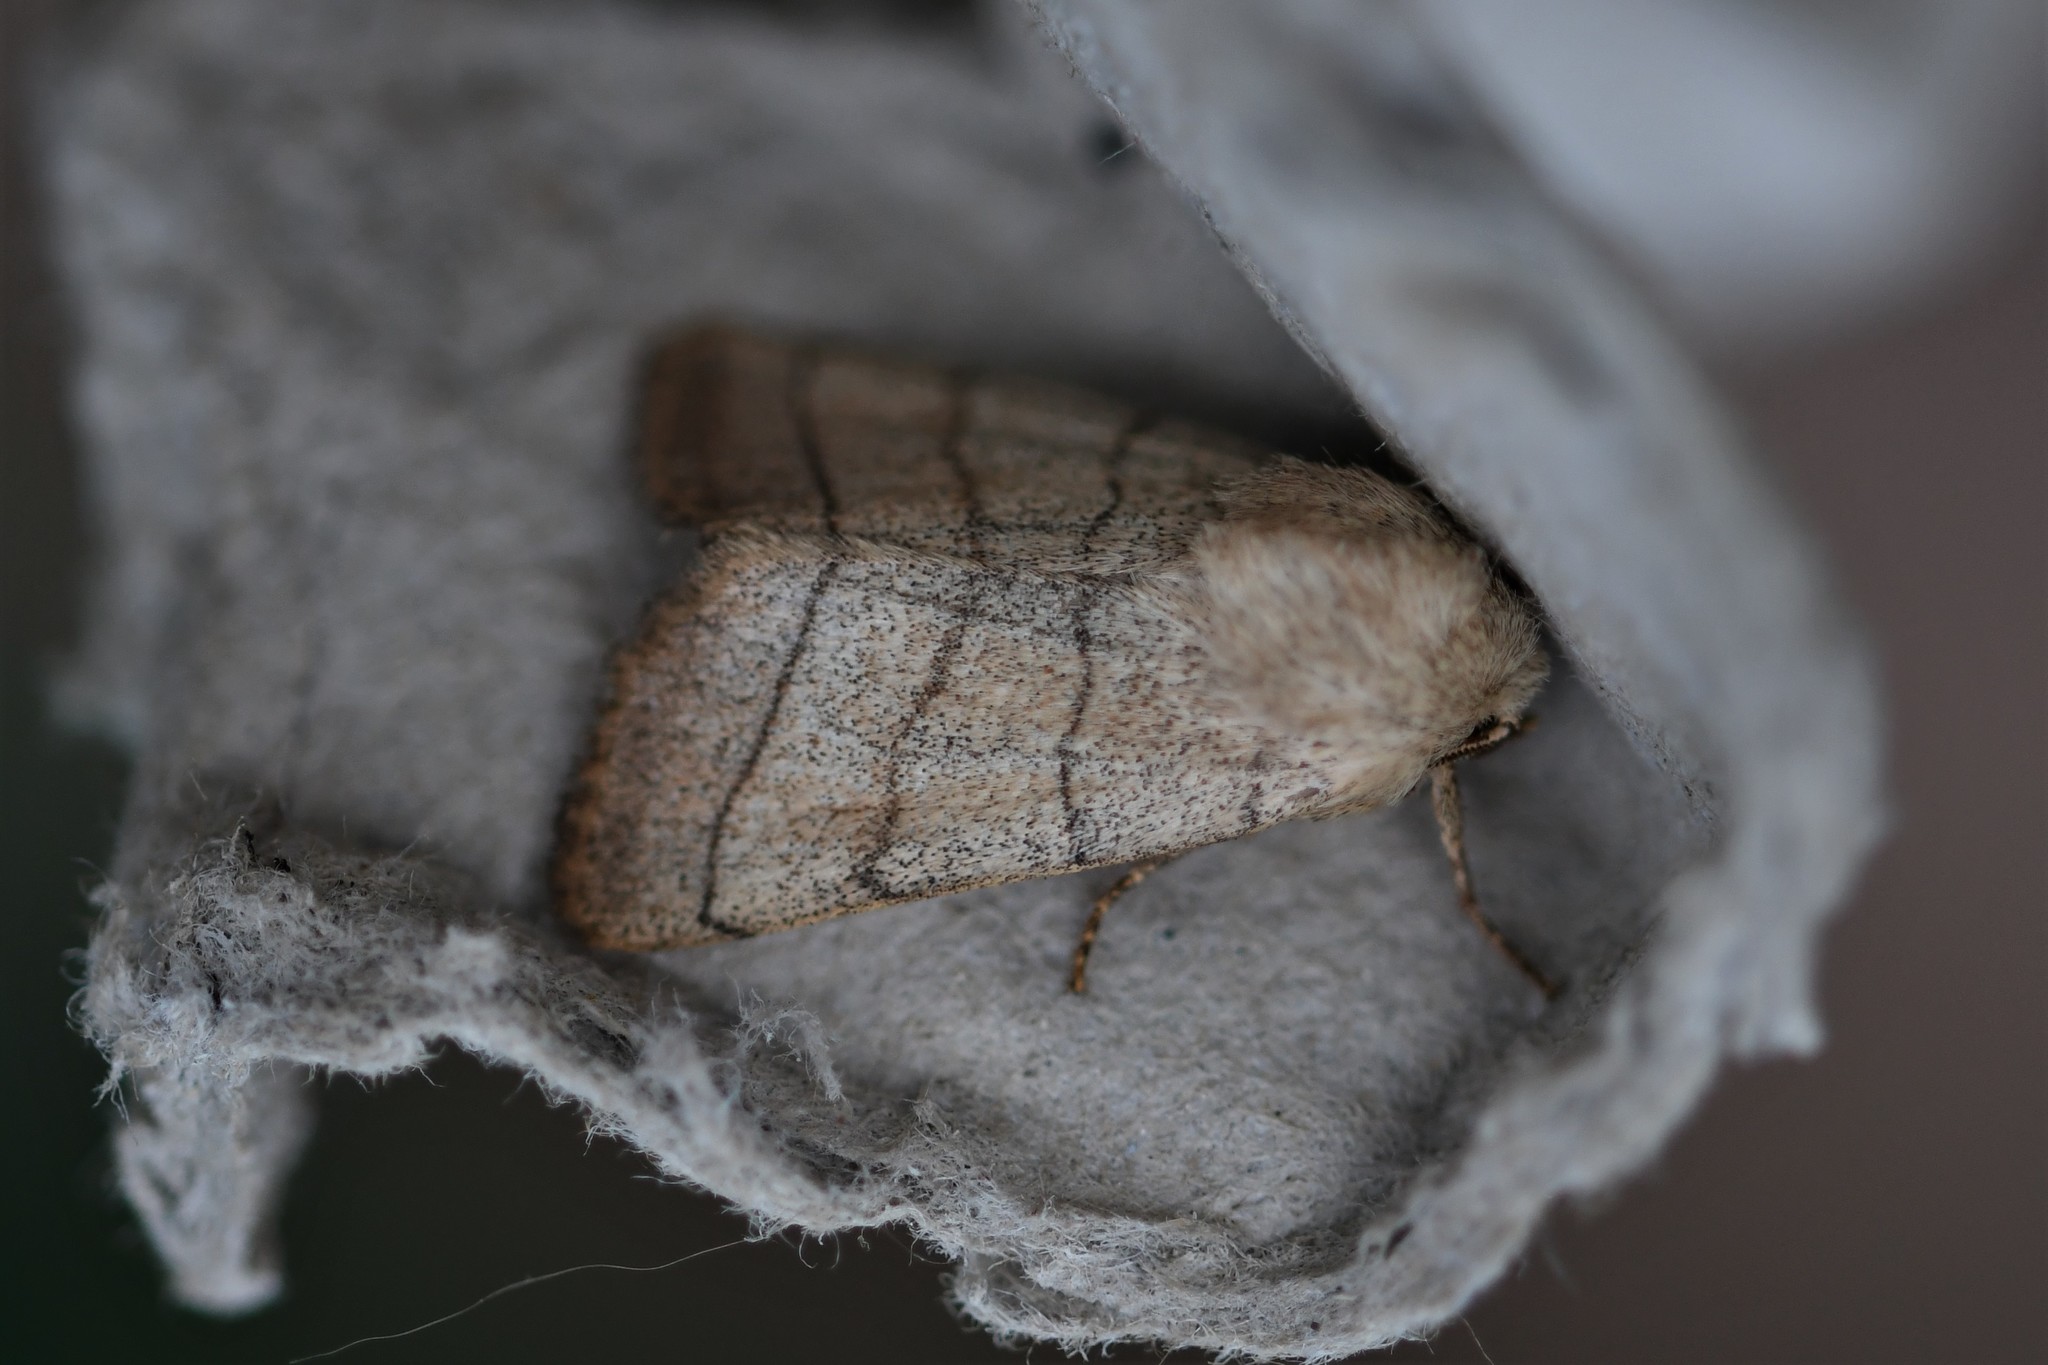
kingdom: Animalia
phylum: Arthropoda
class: Insecta
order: Lepidoptera
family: Noctuidae
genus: Charanyca
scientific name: Charanyca trigrammica
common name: Treble lines
